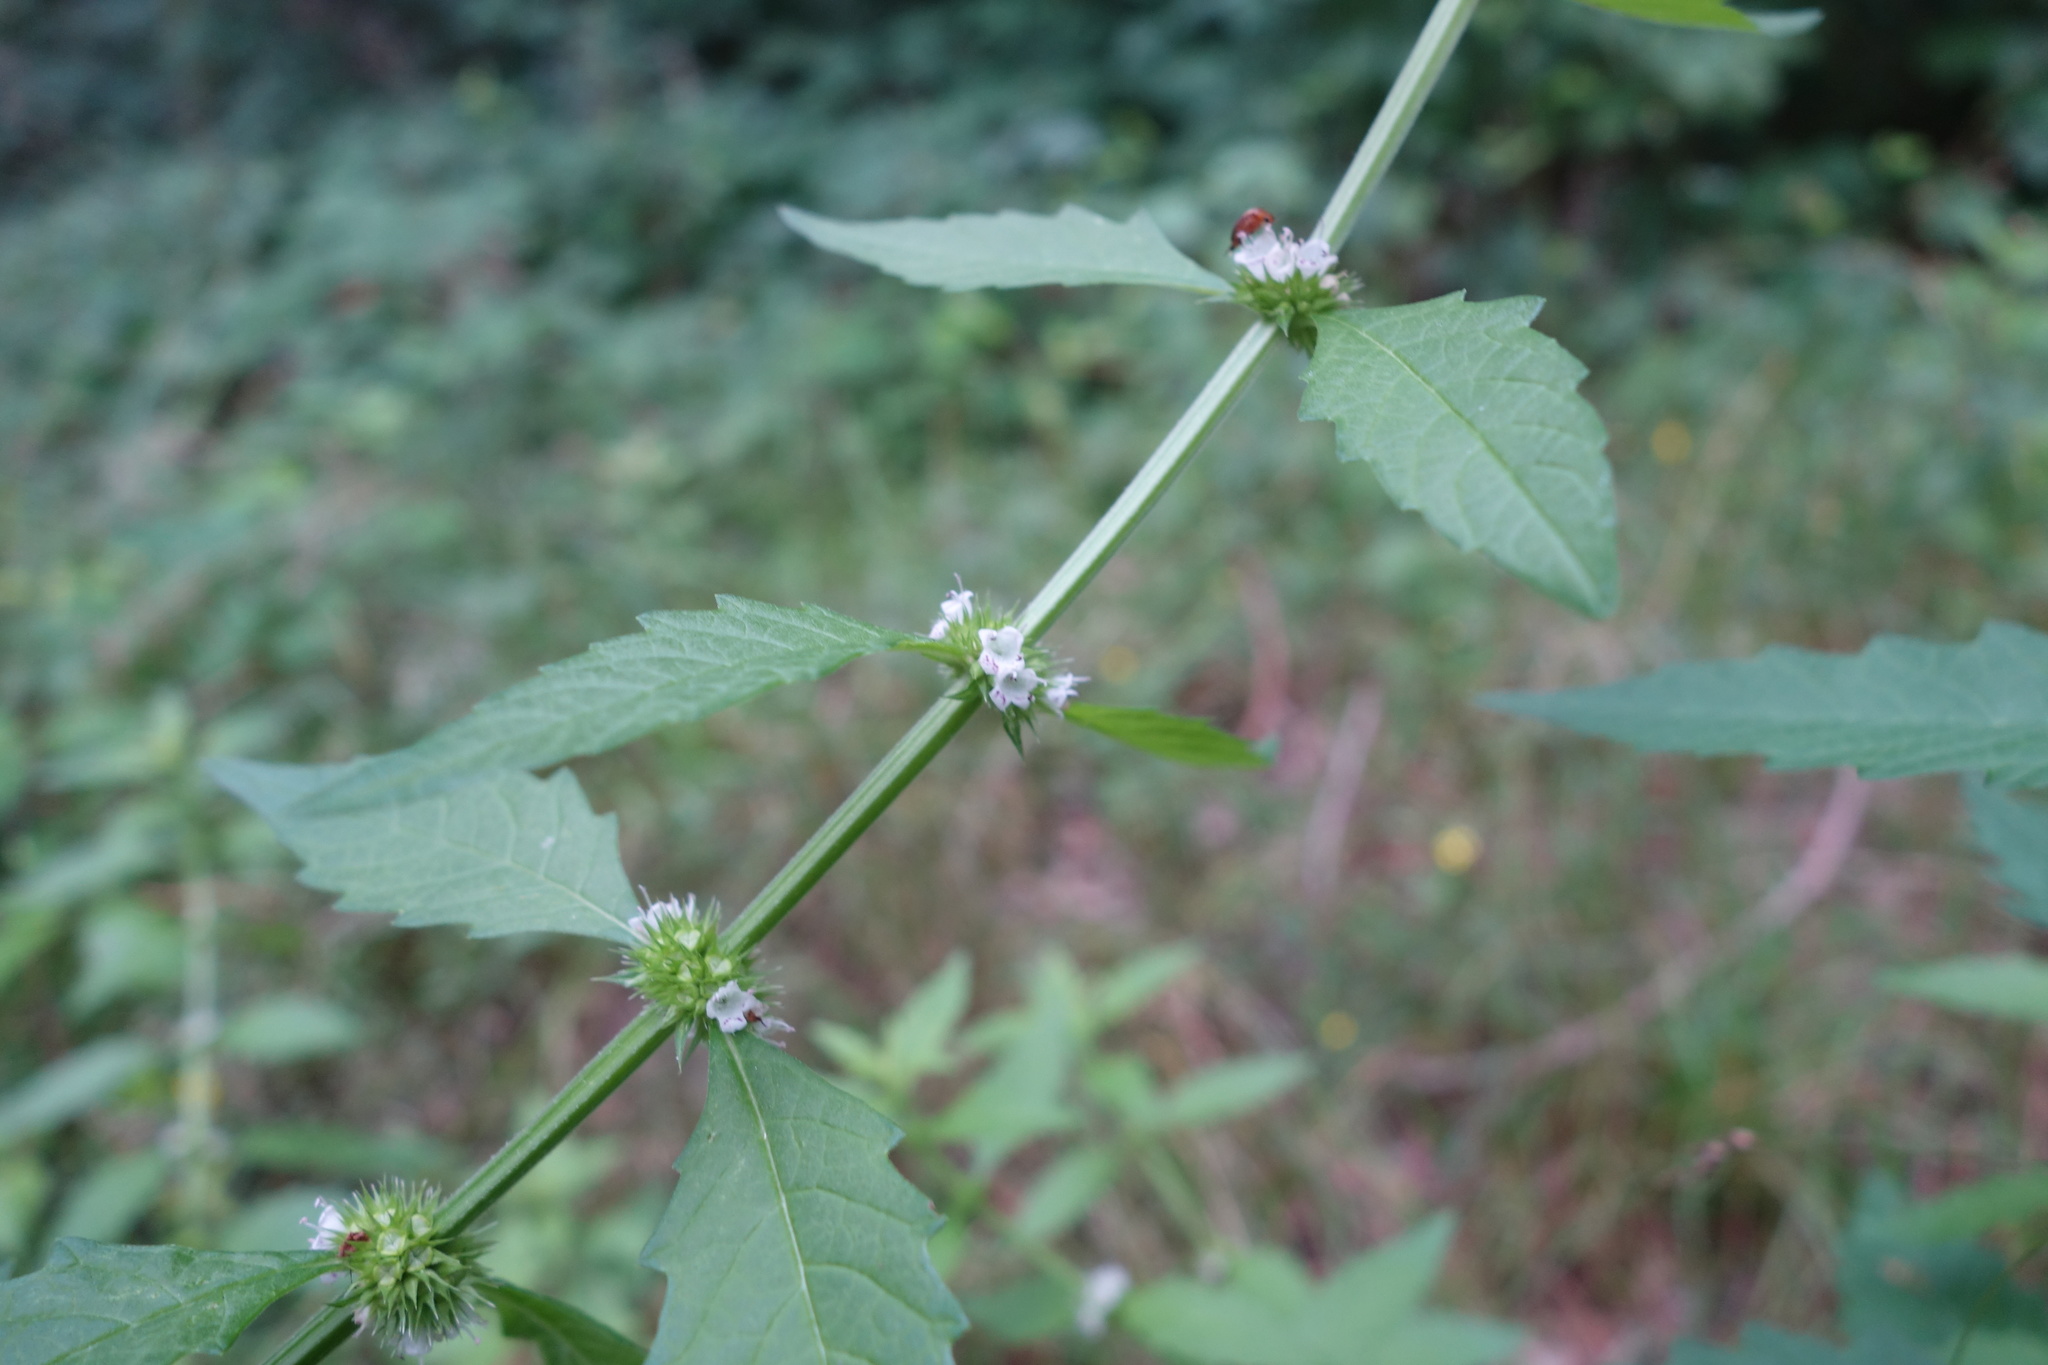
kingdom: Plantae
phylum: Tracheophyta
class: Magnoliopsida
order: Lamiales
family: Lamiaceae
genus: Lycopus
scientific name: Lycopus europaeus
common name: European bugleweed
